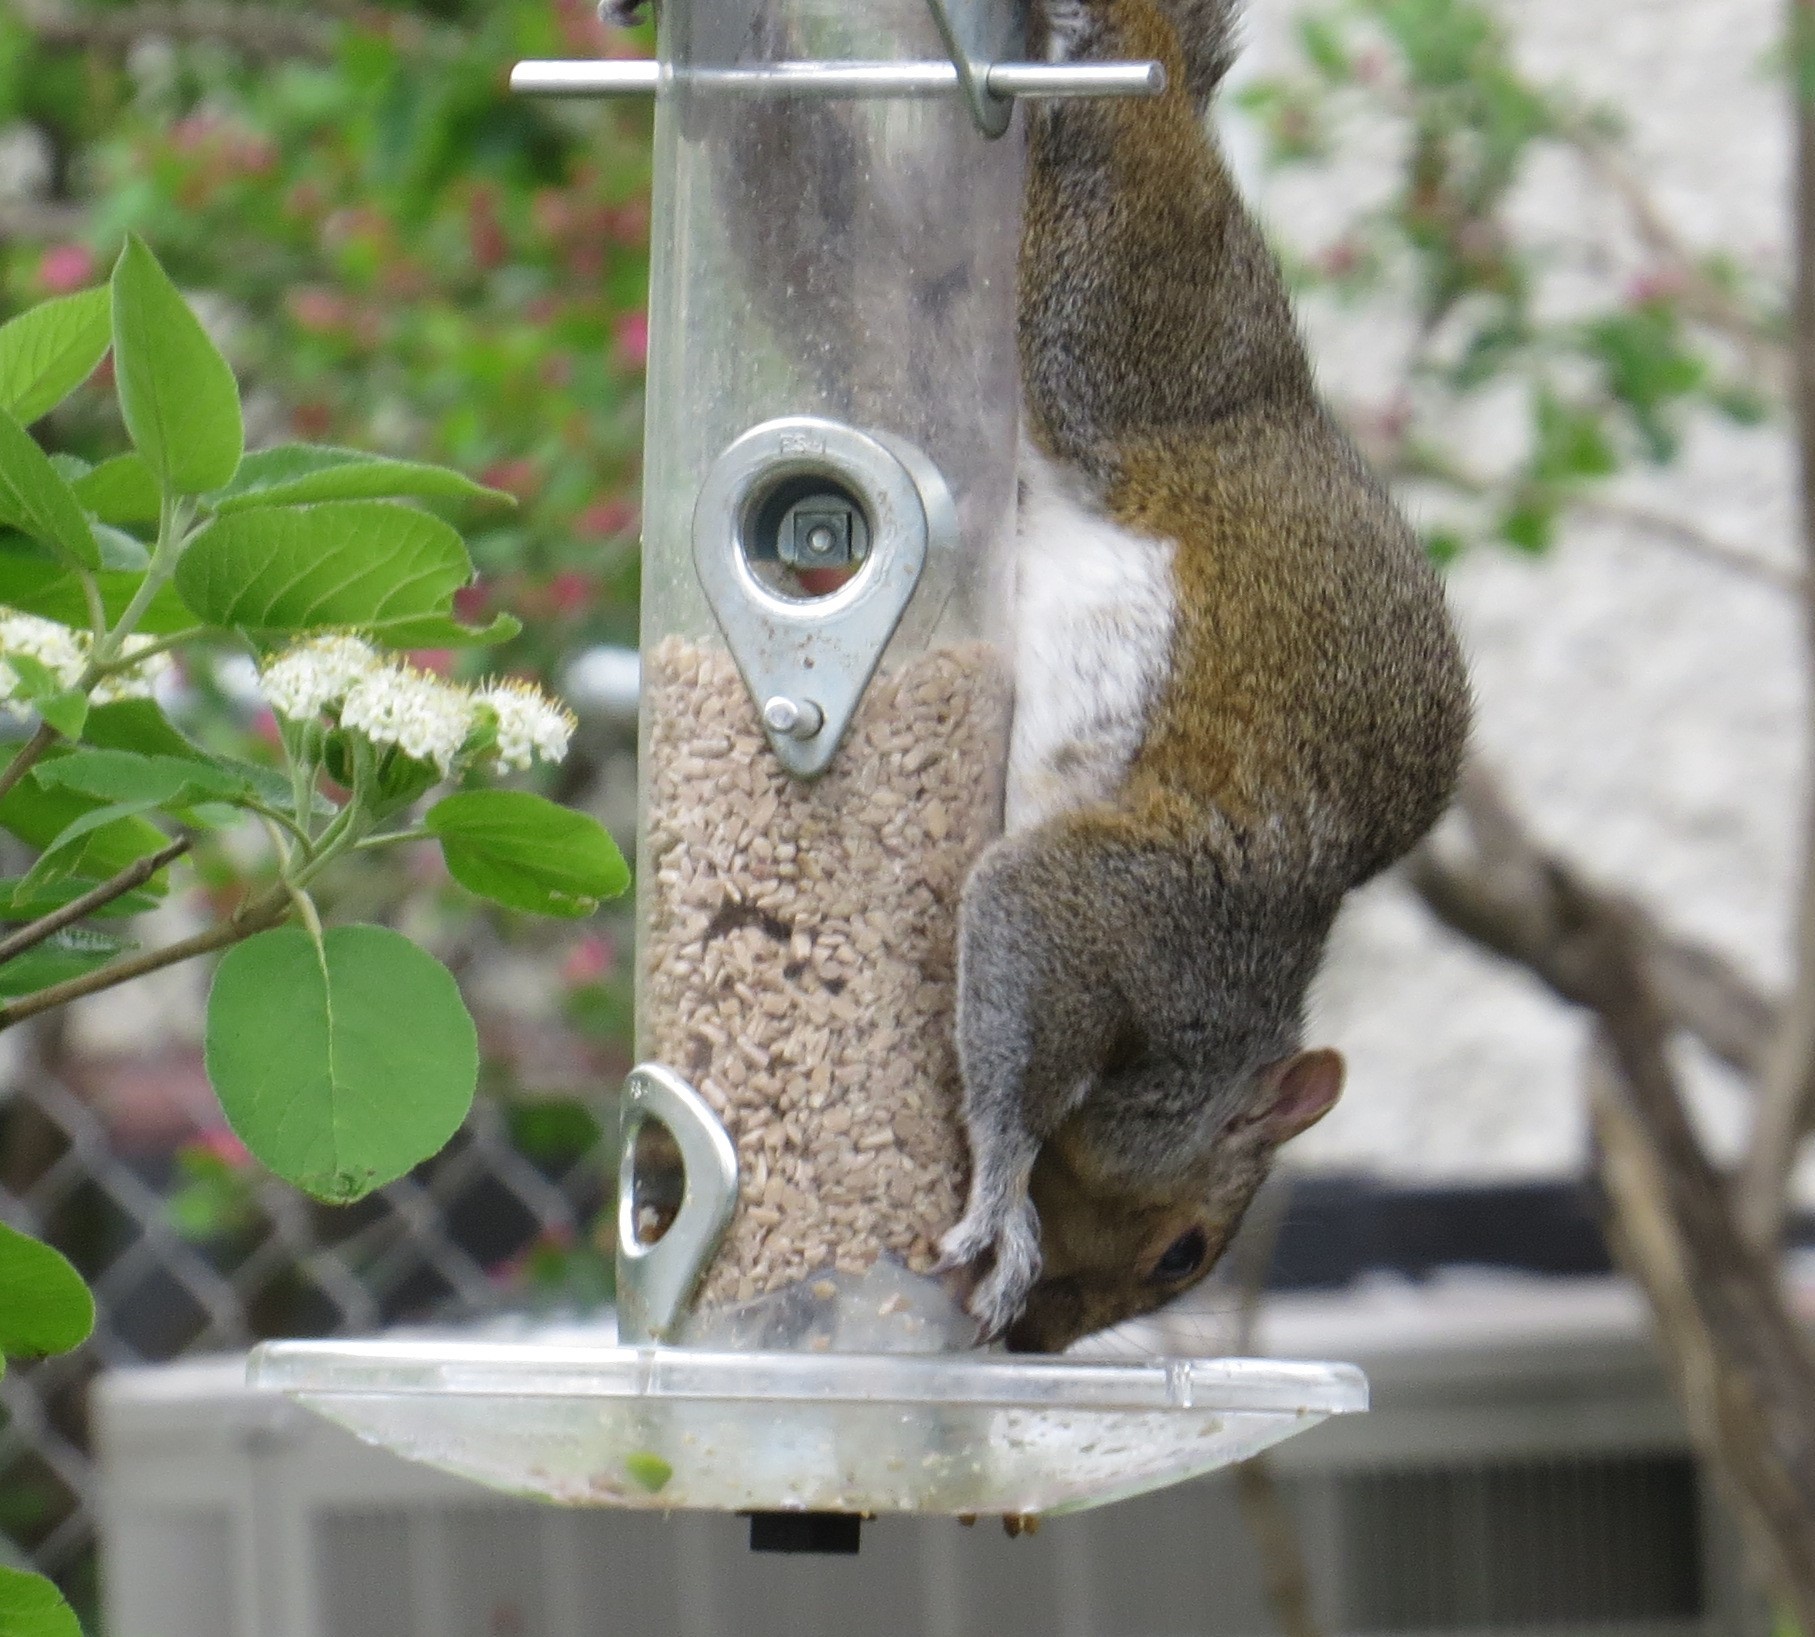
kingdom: Animalia
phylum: Chordata
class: Mammalia
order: Rodentia
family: Sciuridae
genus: Sciurus
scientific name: Sciurus carolinensis
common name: Eastern gray squirrel
